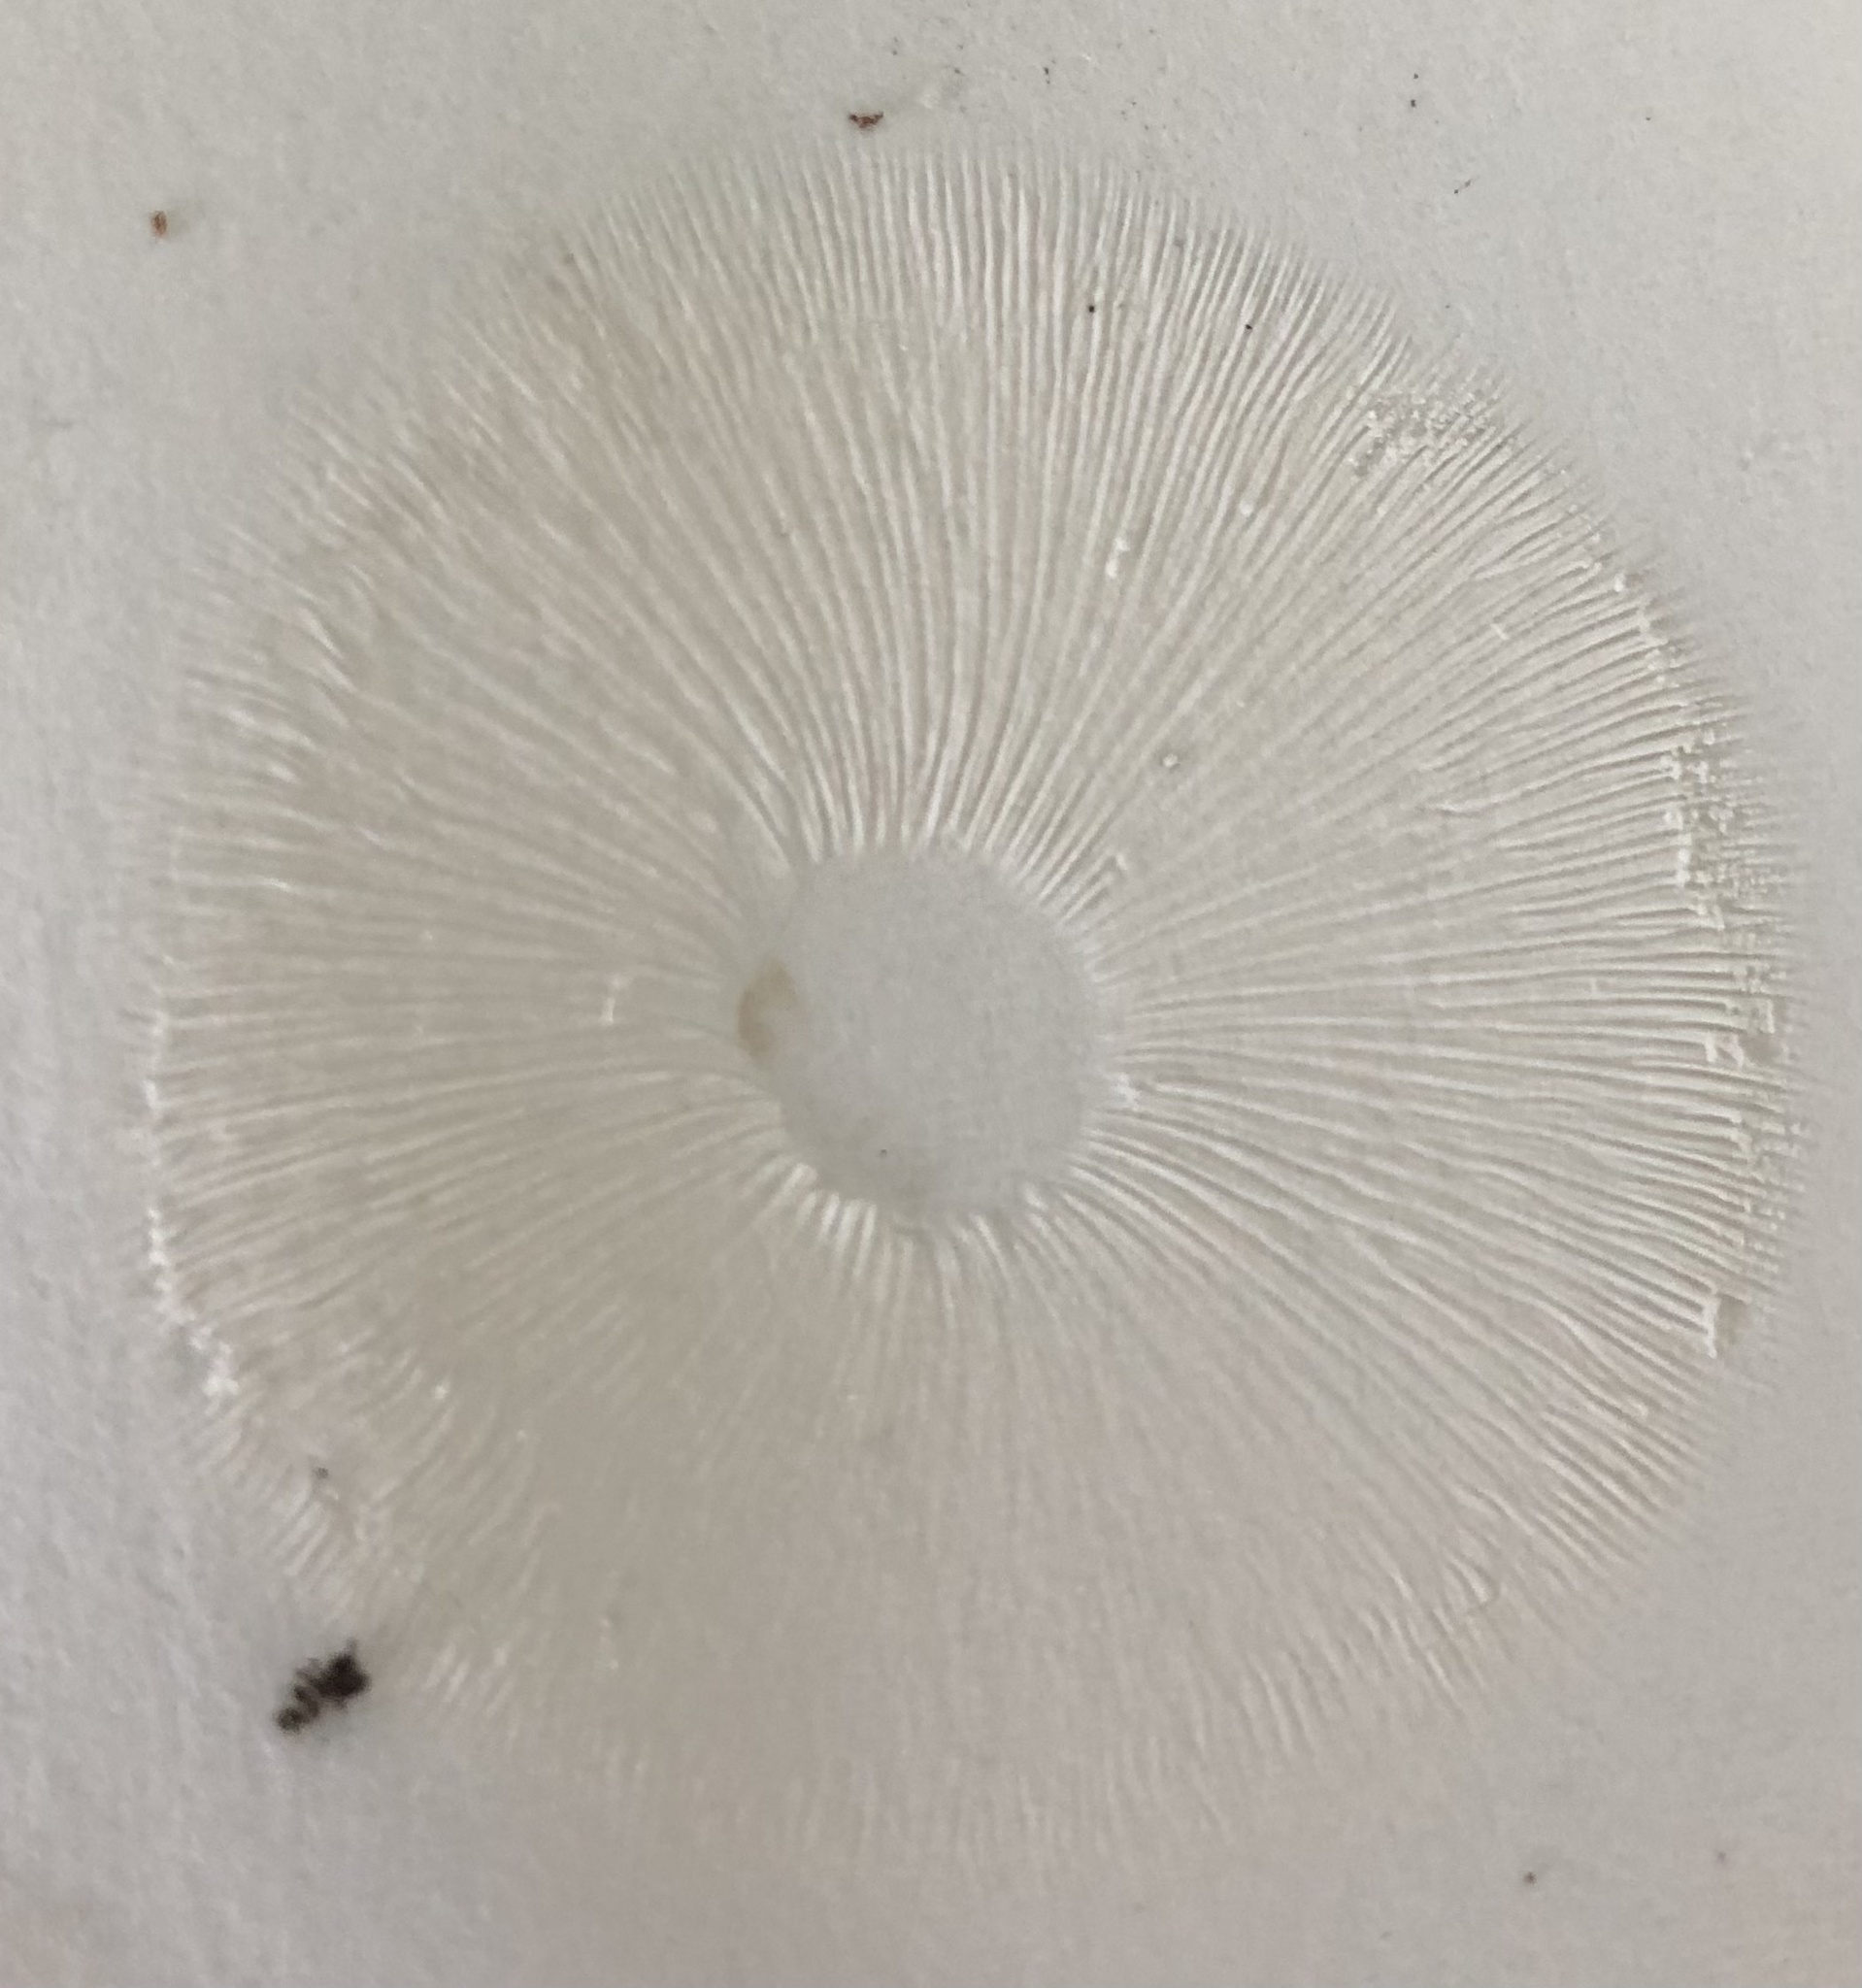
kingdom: Fungi
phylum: Basidiomycota
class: Agaricomycetes
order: Agaricales
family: Physalacriaceae
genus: Armillaria
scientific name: Armillaria gallica
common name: Bulbous honey fungus
